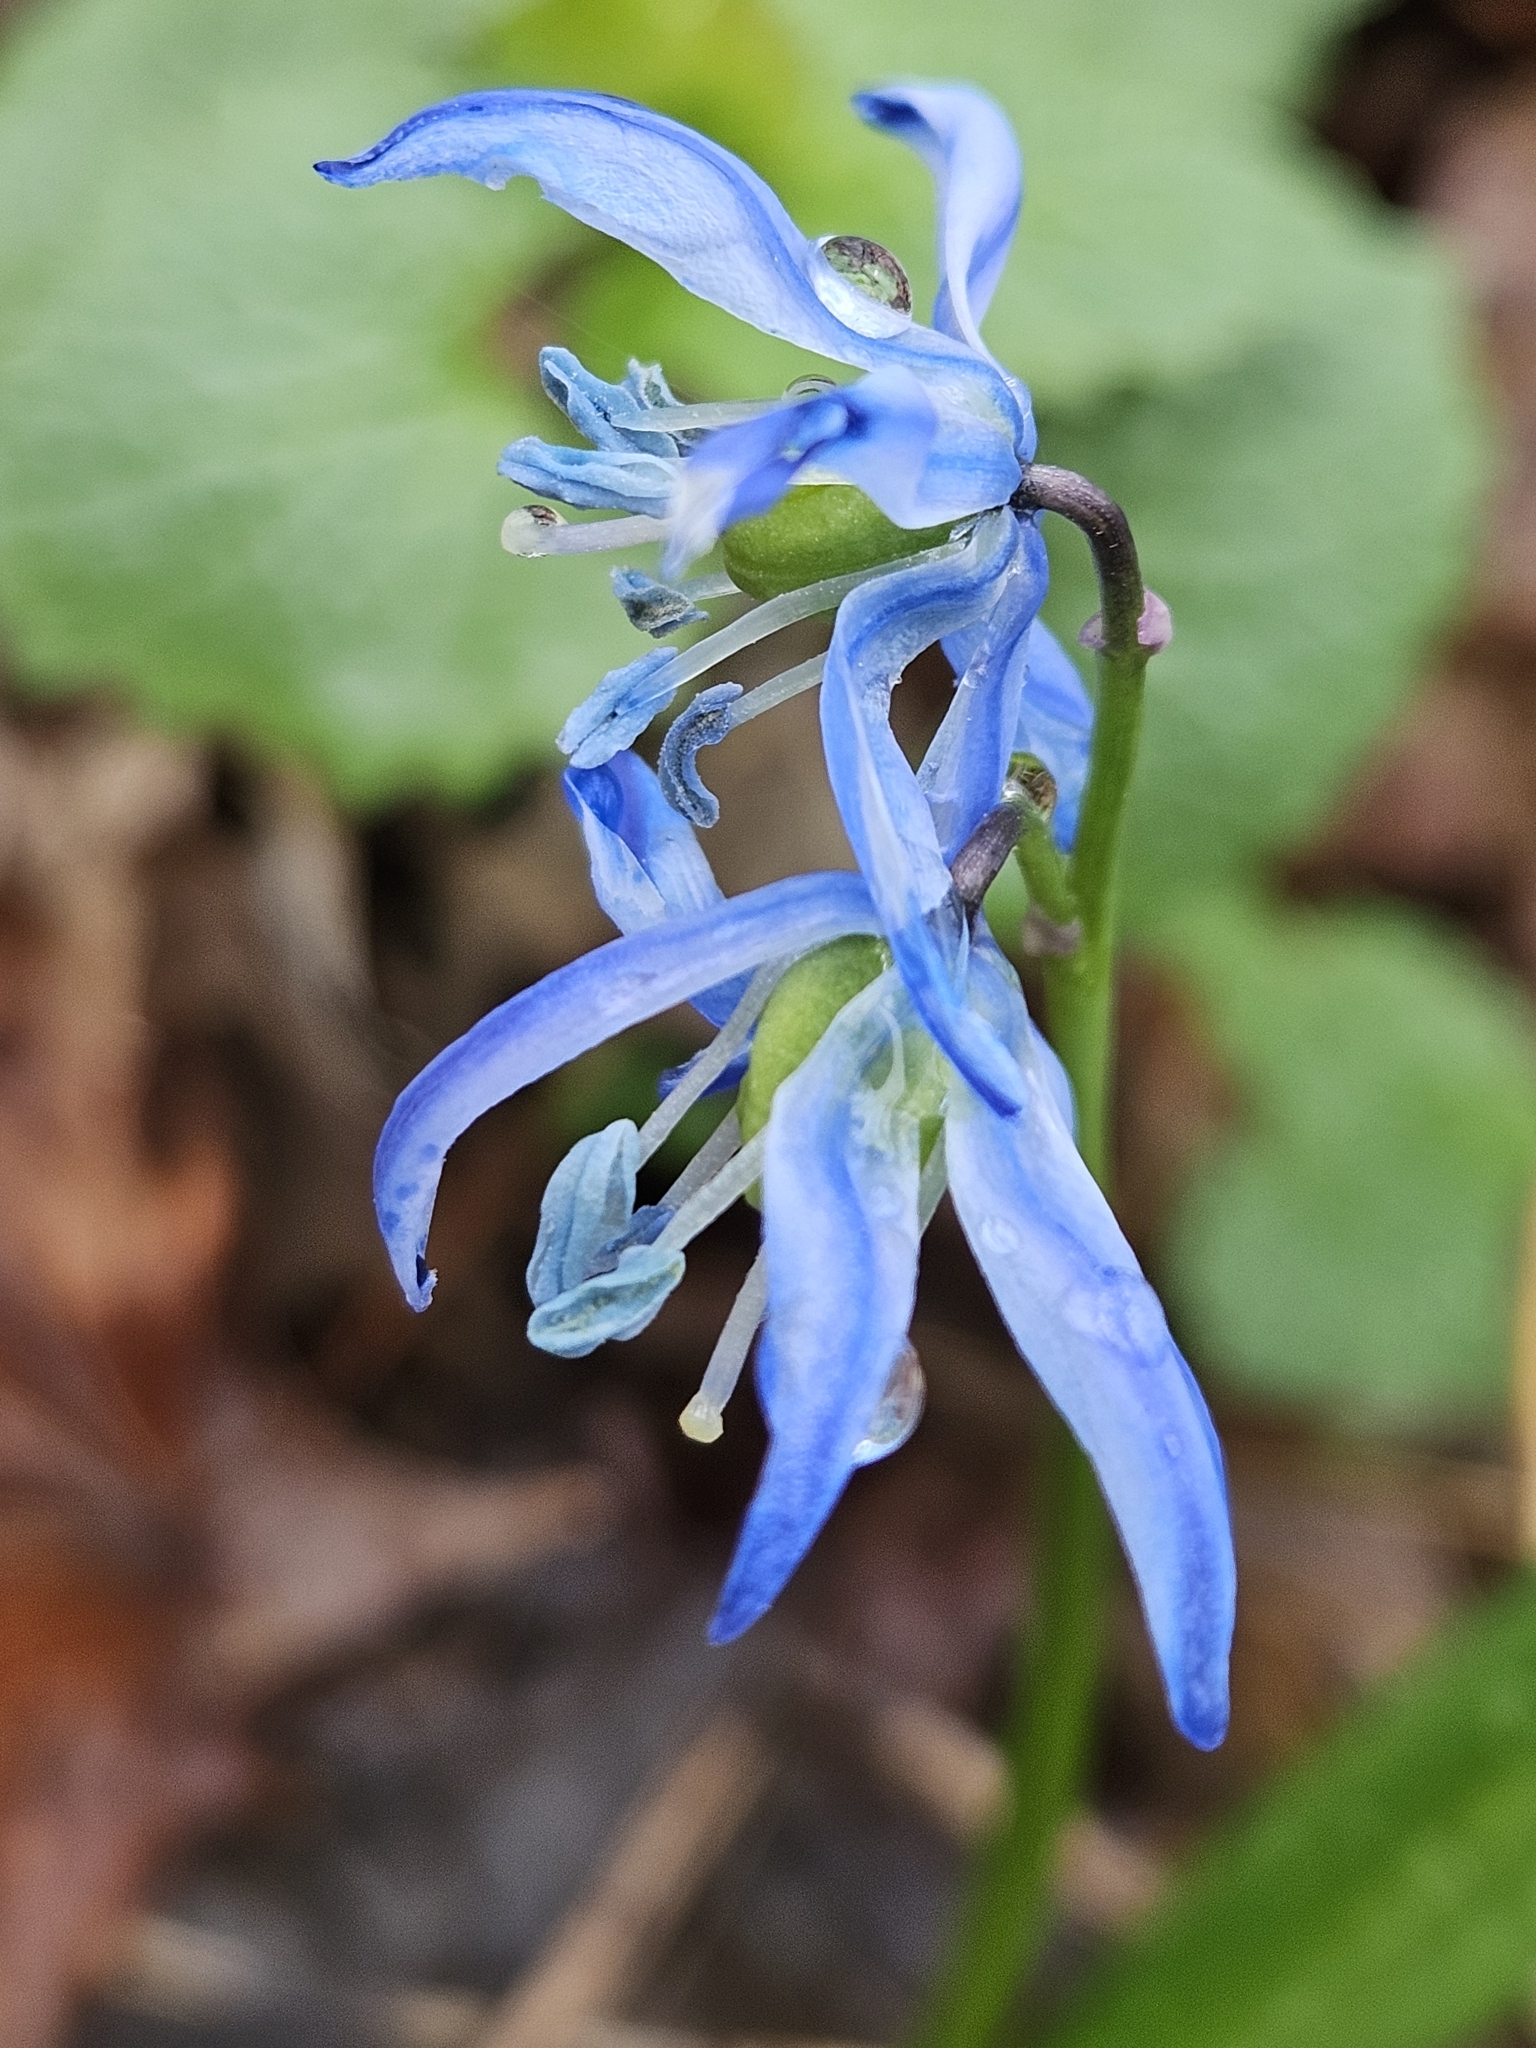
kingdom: Plantae
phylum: Tracheophyta
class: Liliopsida
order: Asparagales
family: Asparagaceae
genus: Scilla
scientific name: Scilla siberica
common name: Siberian squill
